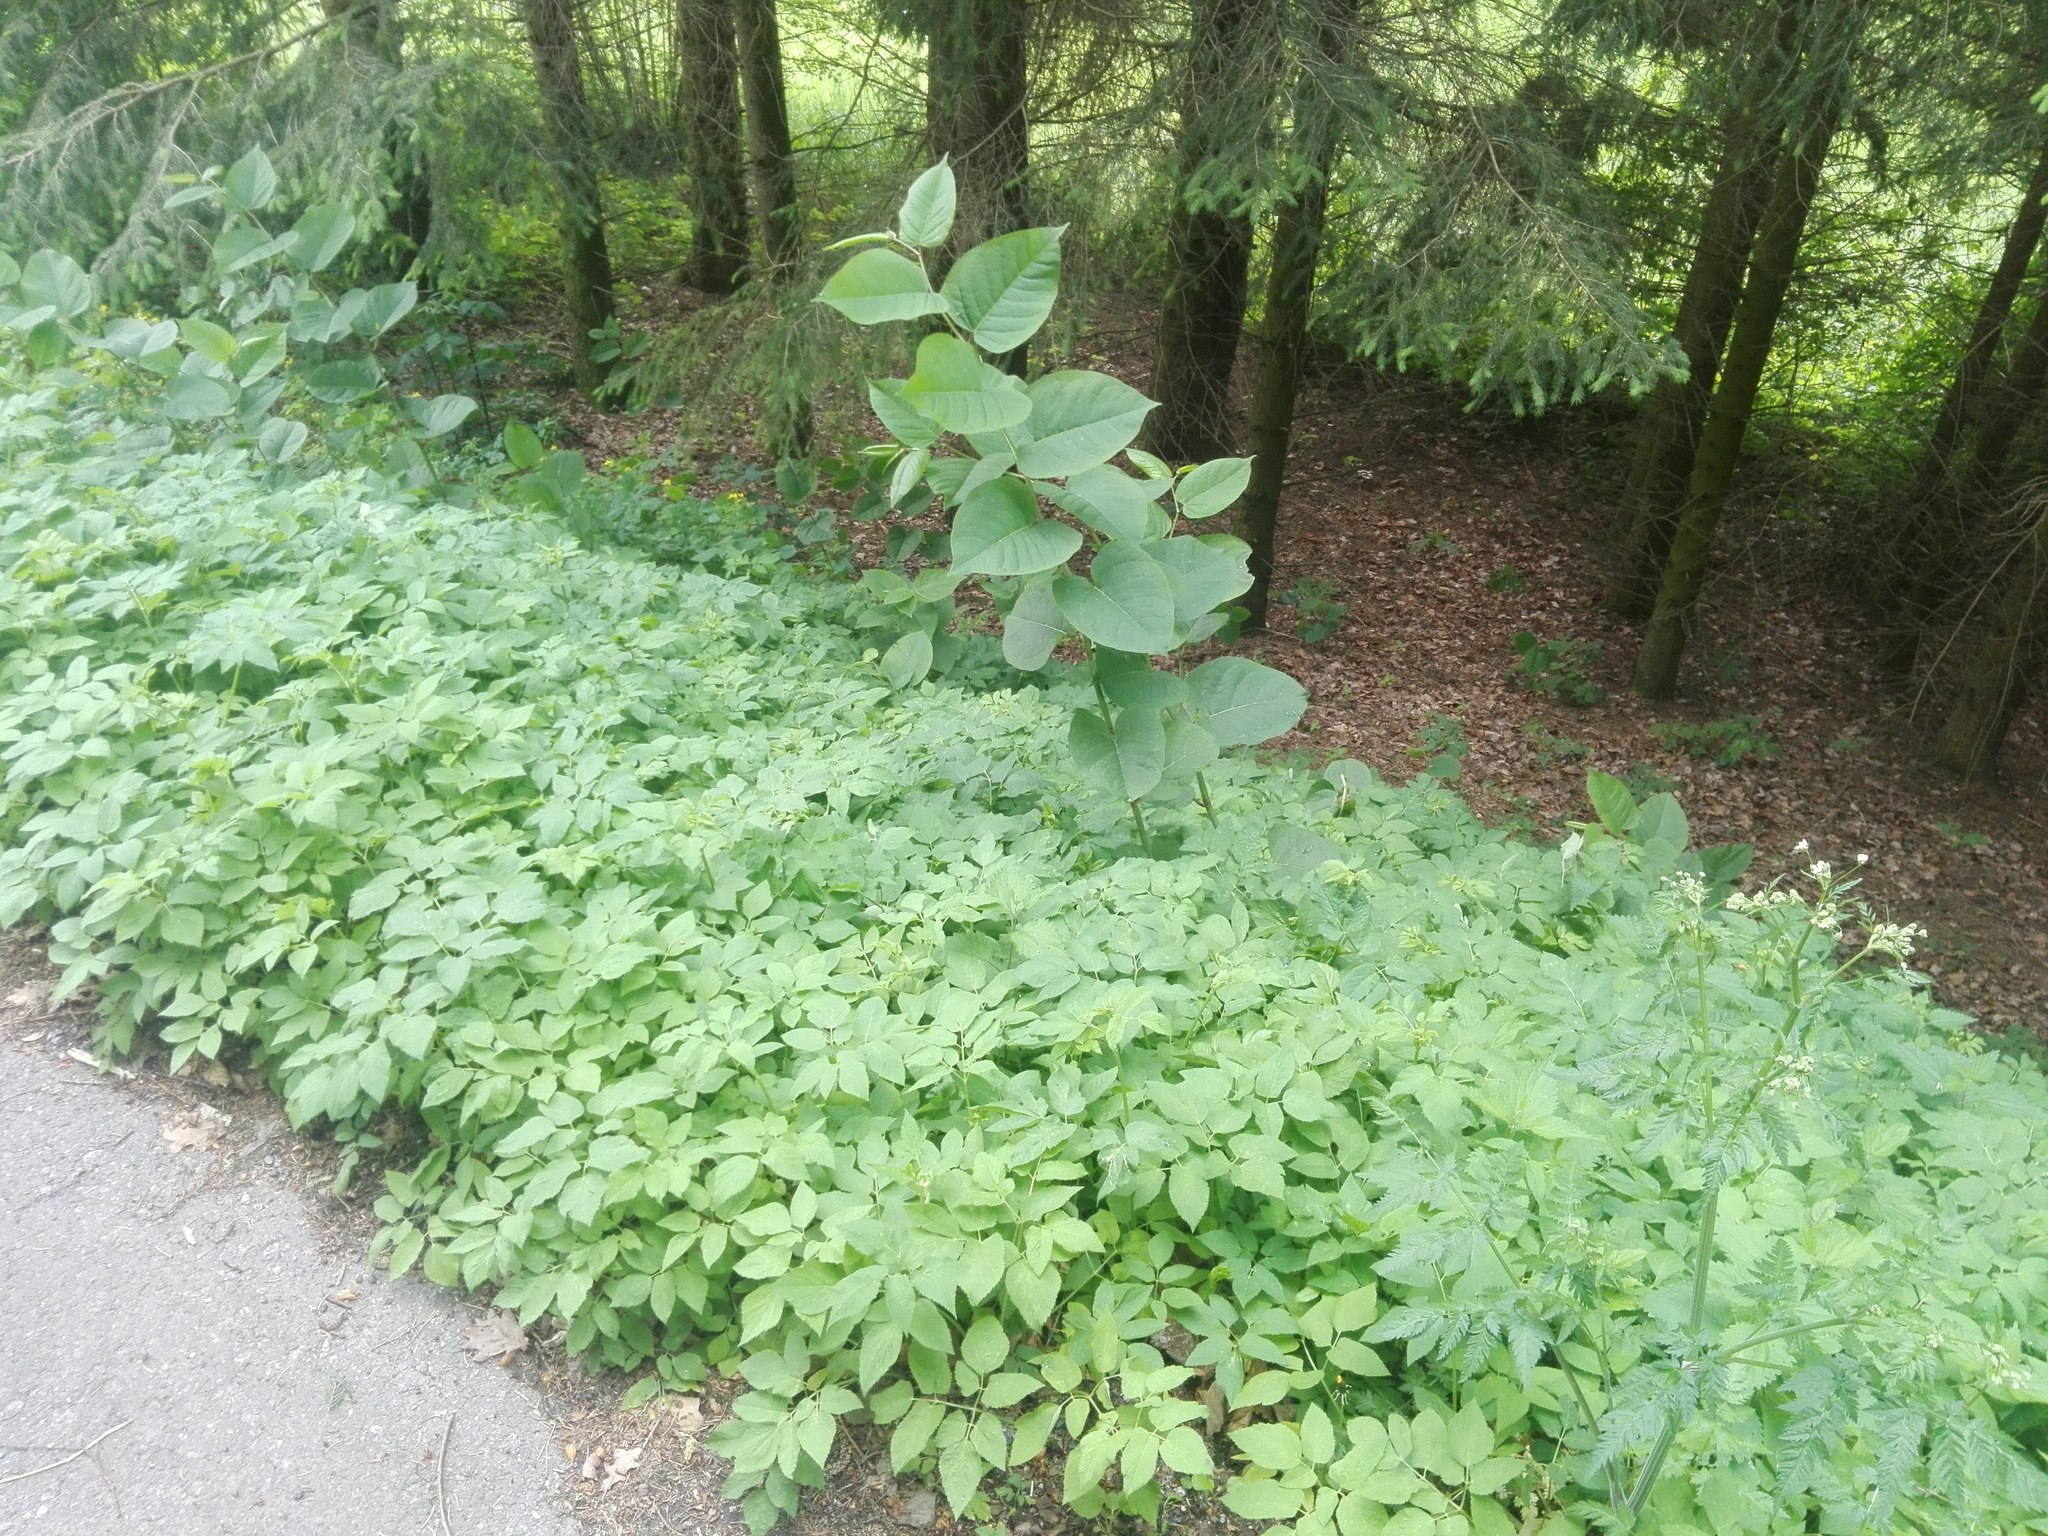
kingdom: Plantae
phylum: Tracheophyta
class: Magnoliopsida
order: Apiales
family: Apiaceae
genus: Aegopodium
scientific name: Aegopodium podagraria
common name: Ground-elder
